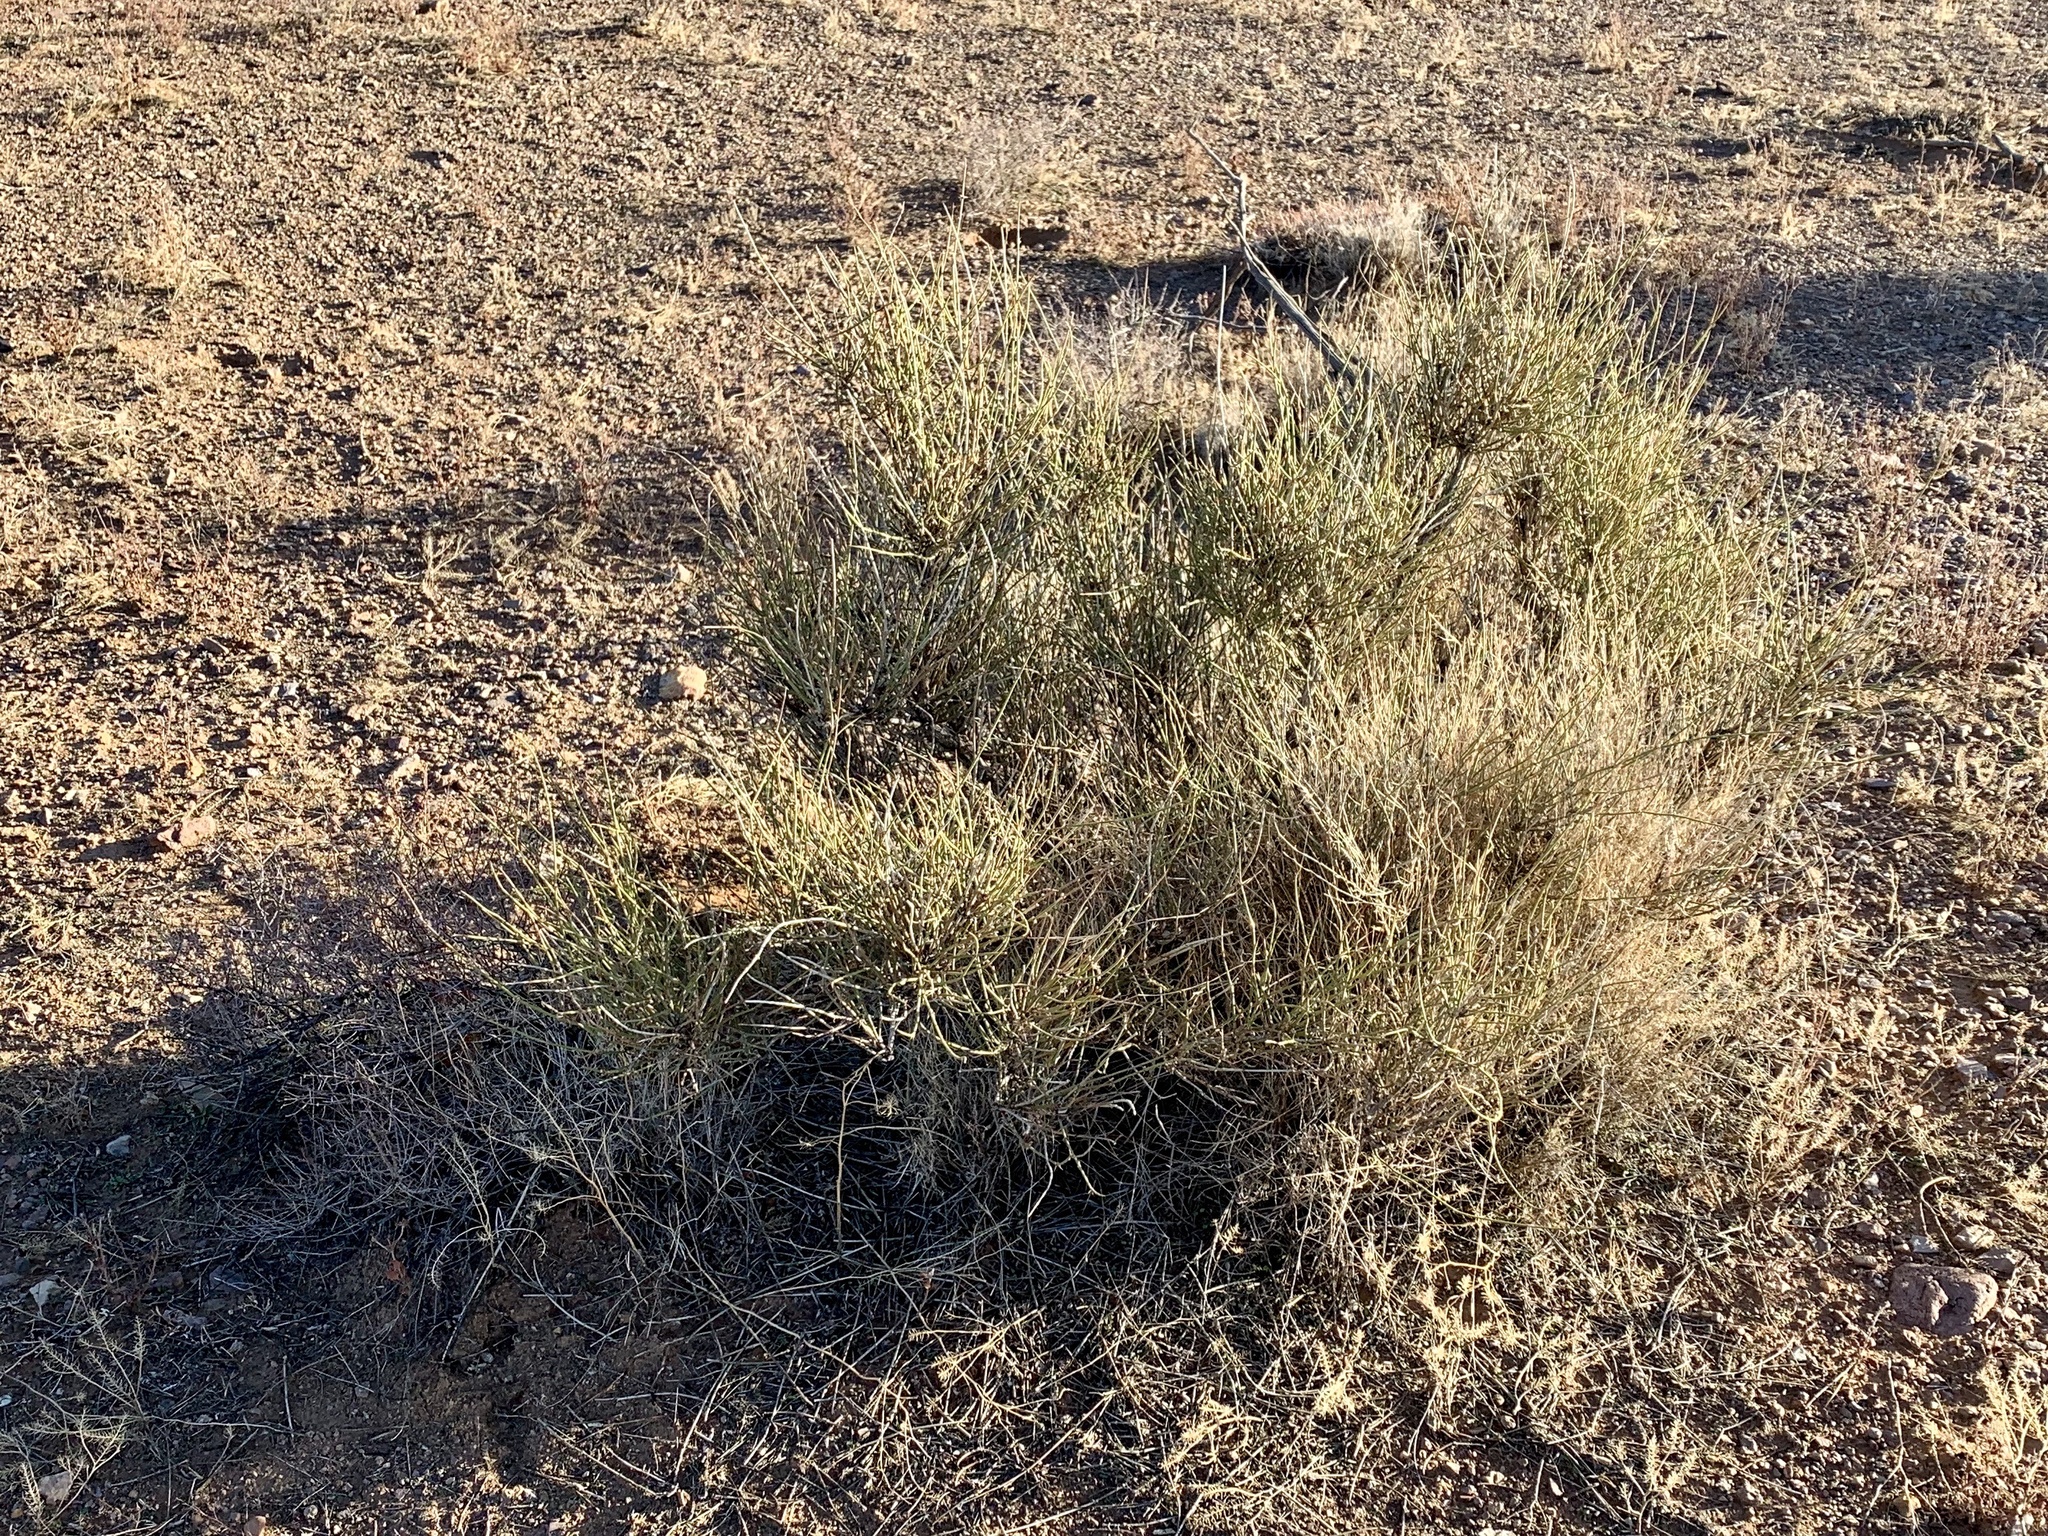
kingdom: Plantae
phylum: Tracheophyta
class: Gnetopsida
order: Ephedrales
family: Ephedraceae
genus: Ephedra
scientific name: Ephedra trifurca
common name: Mexican-tea
